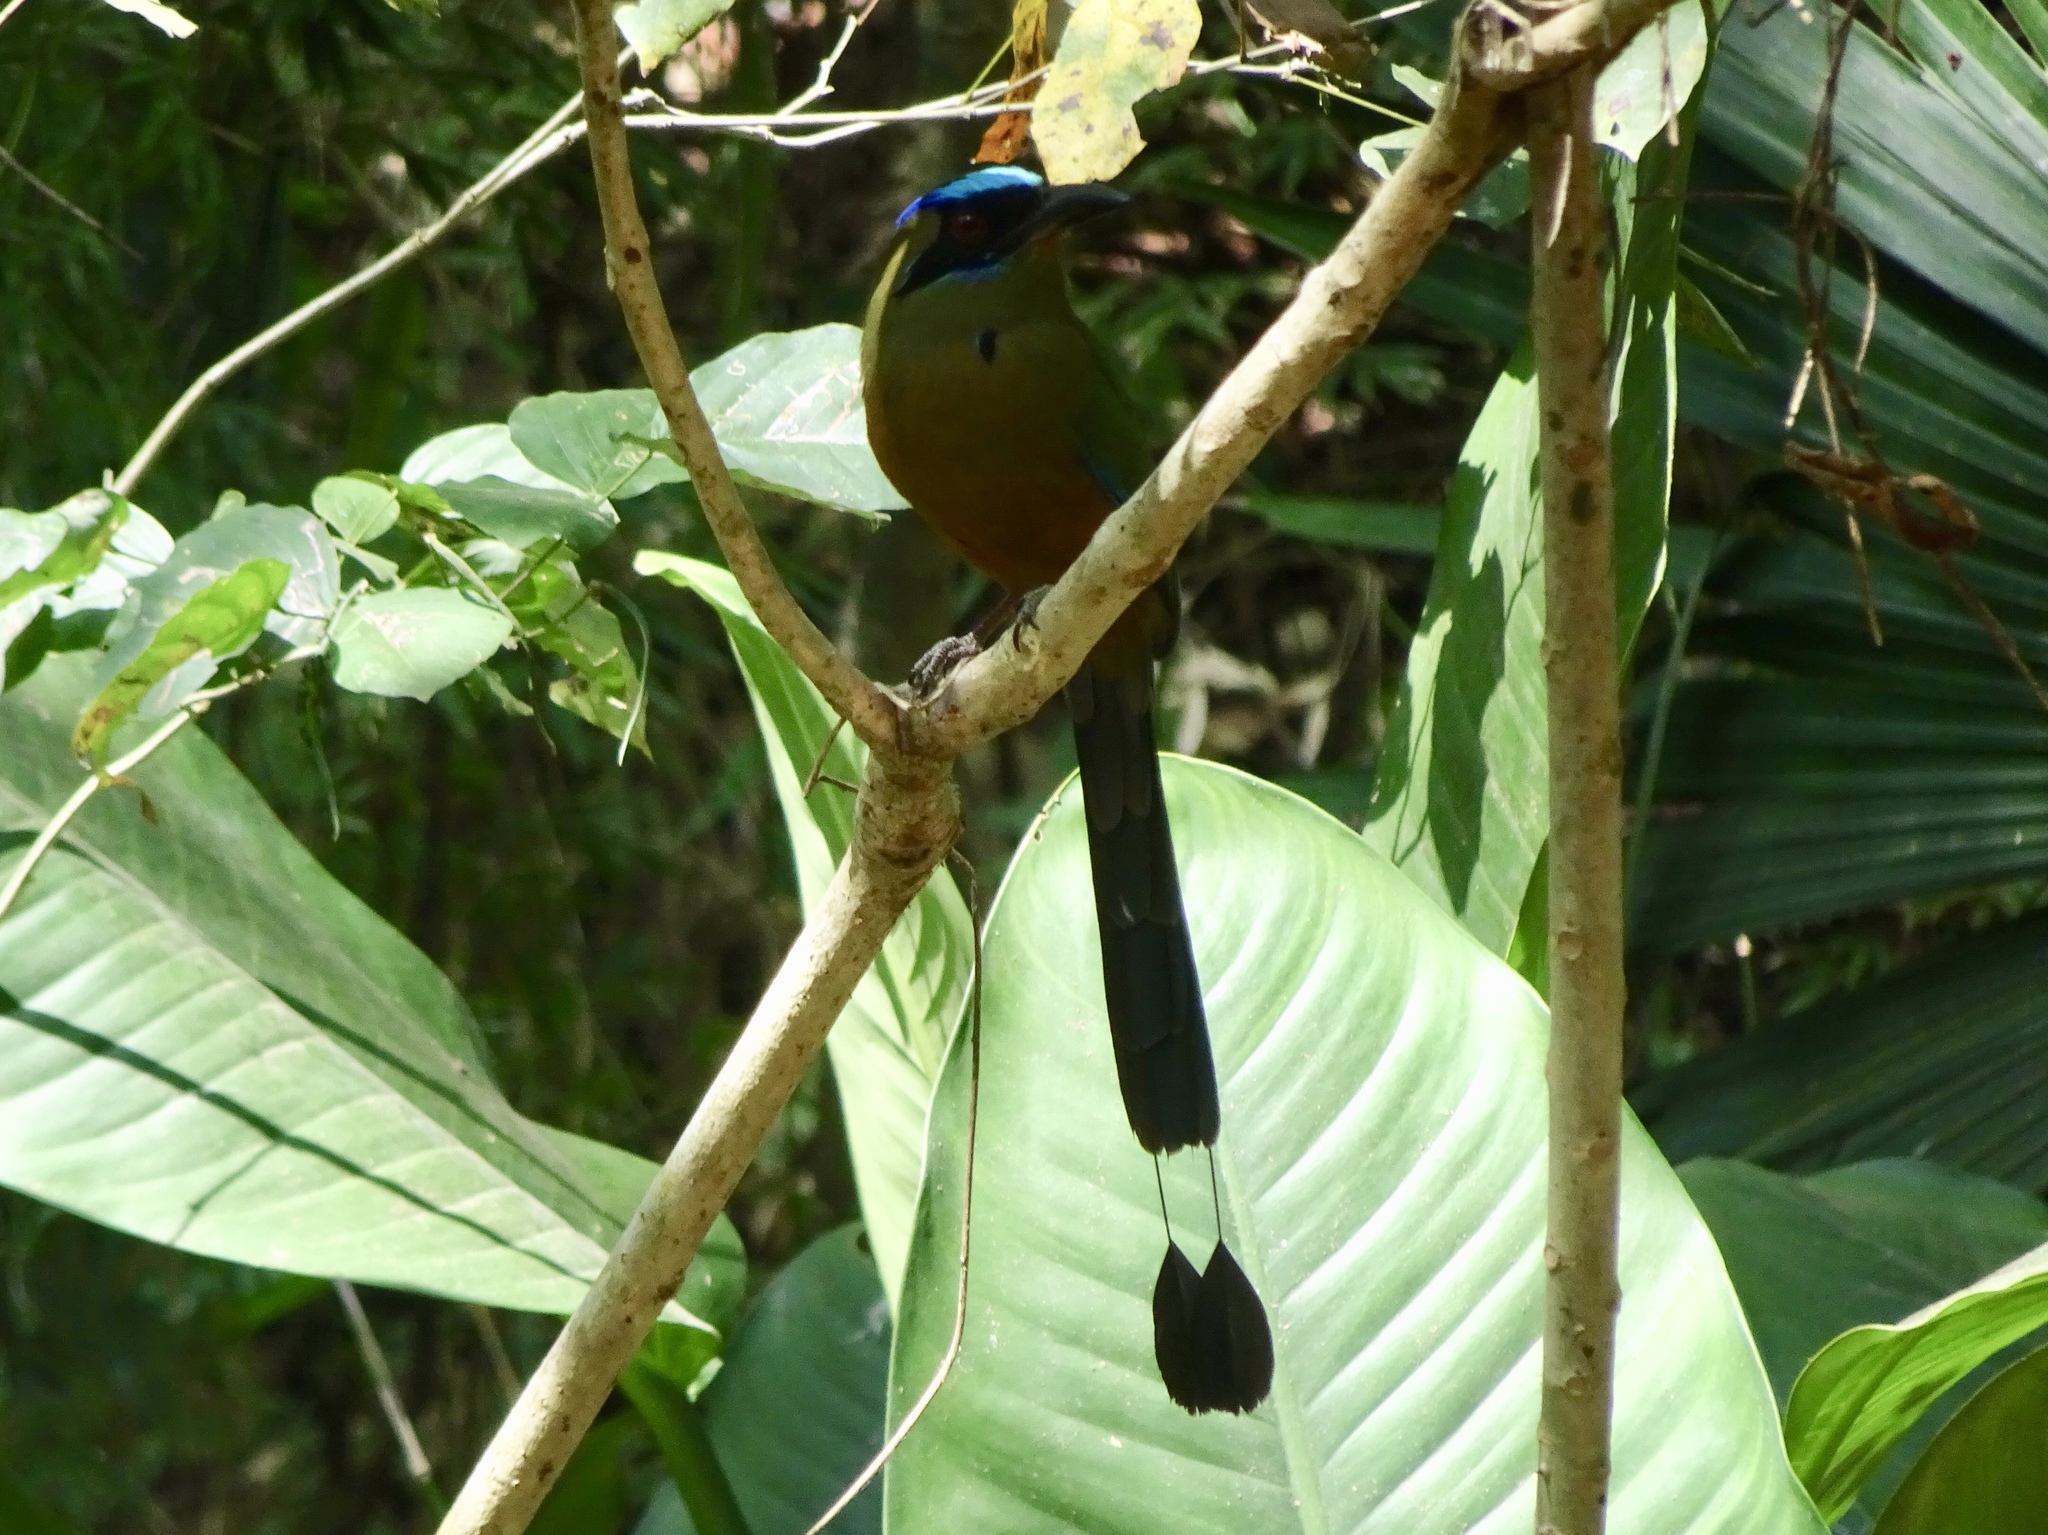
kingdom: Animalia
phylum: Chordata
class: Aves
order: Coraciiformes
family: Momotidae
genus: Momotus
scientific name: Momotus subrufescens
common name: Whooping motmot
